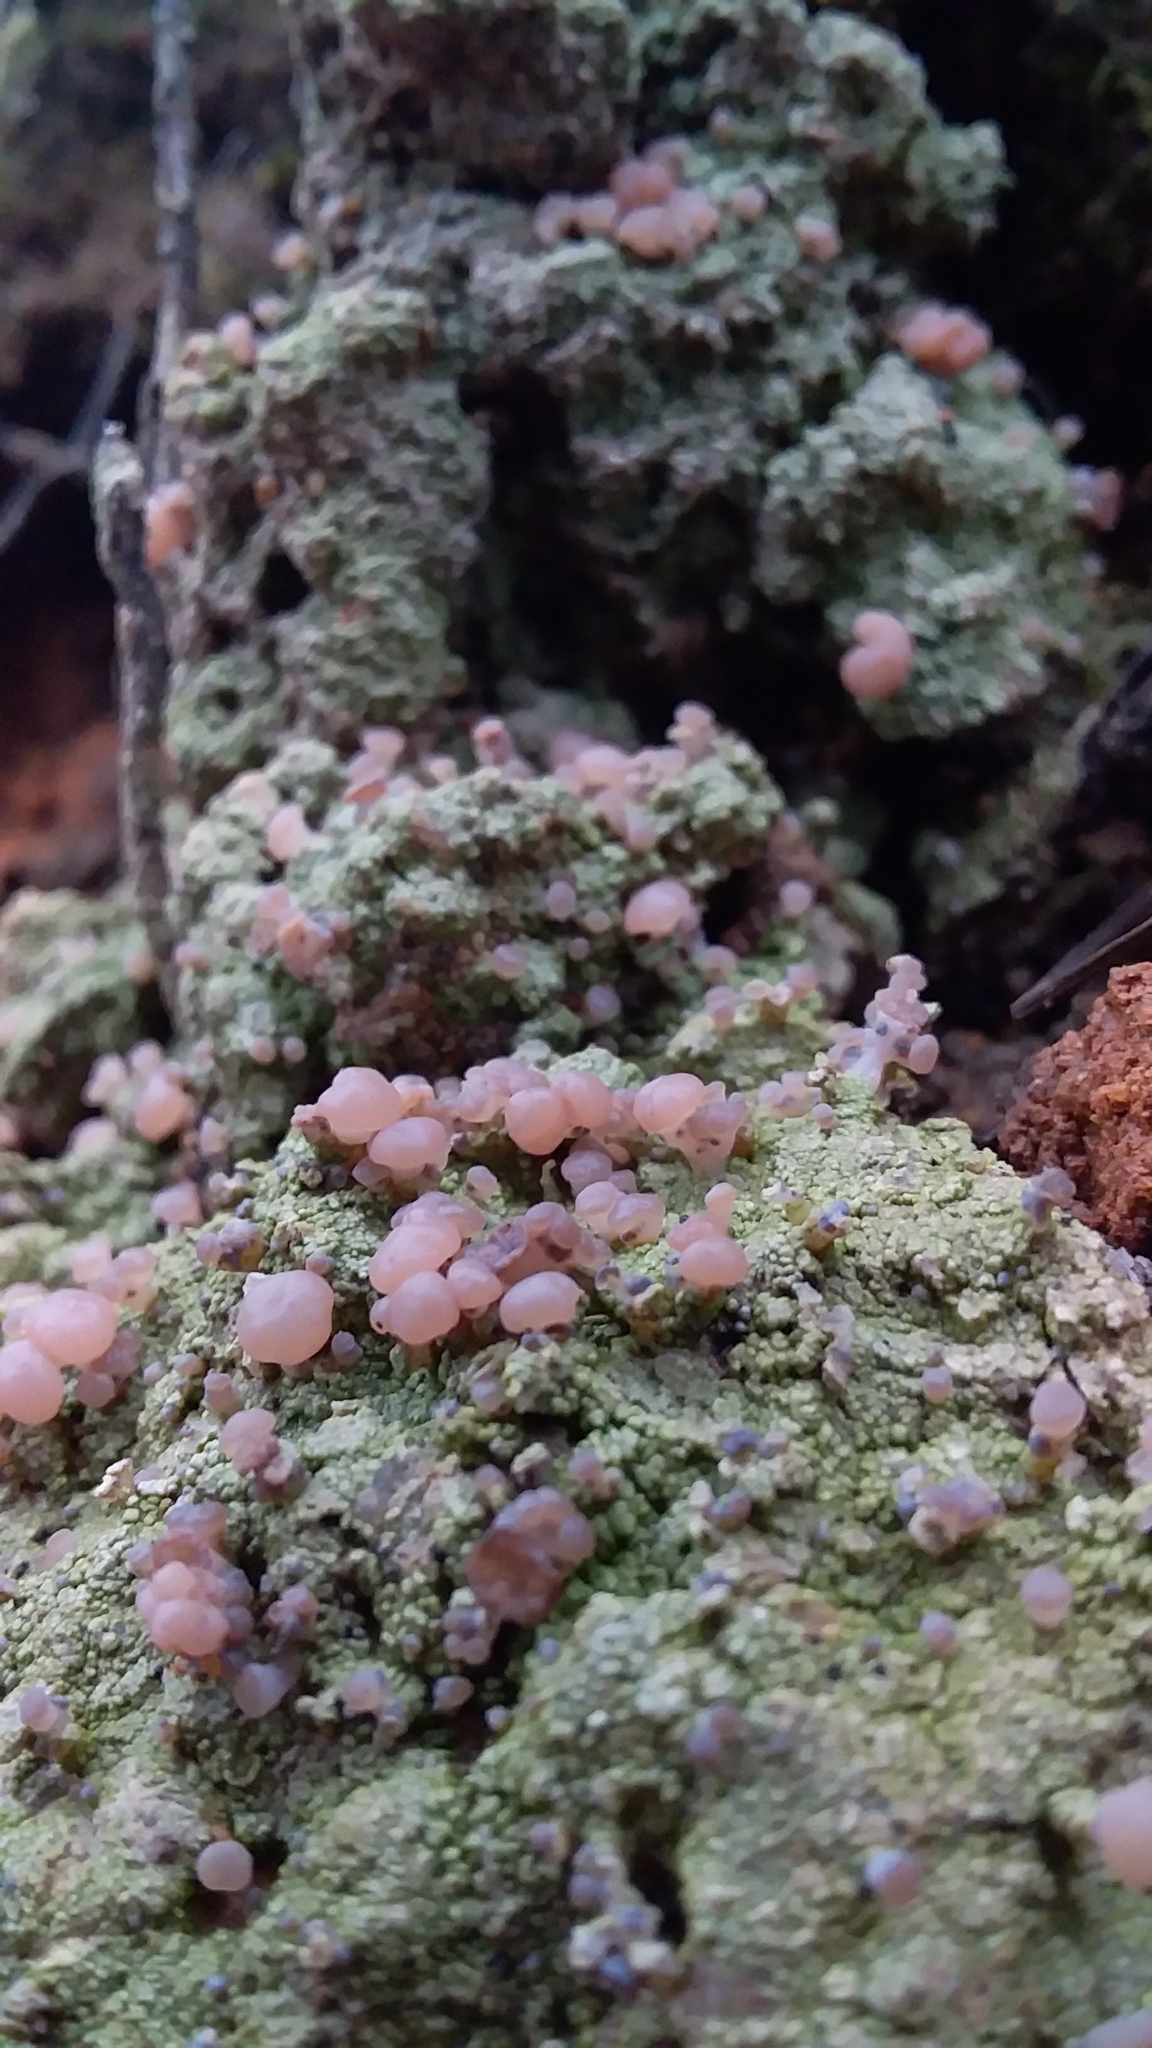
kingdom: Fungi
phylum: Ascomycota
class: Lecanoromycetes
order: Baeomycetales
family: Baeomycetaceae
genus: Baeomyces
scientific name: Baeomyces heteromorphus
